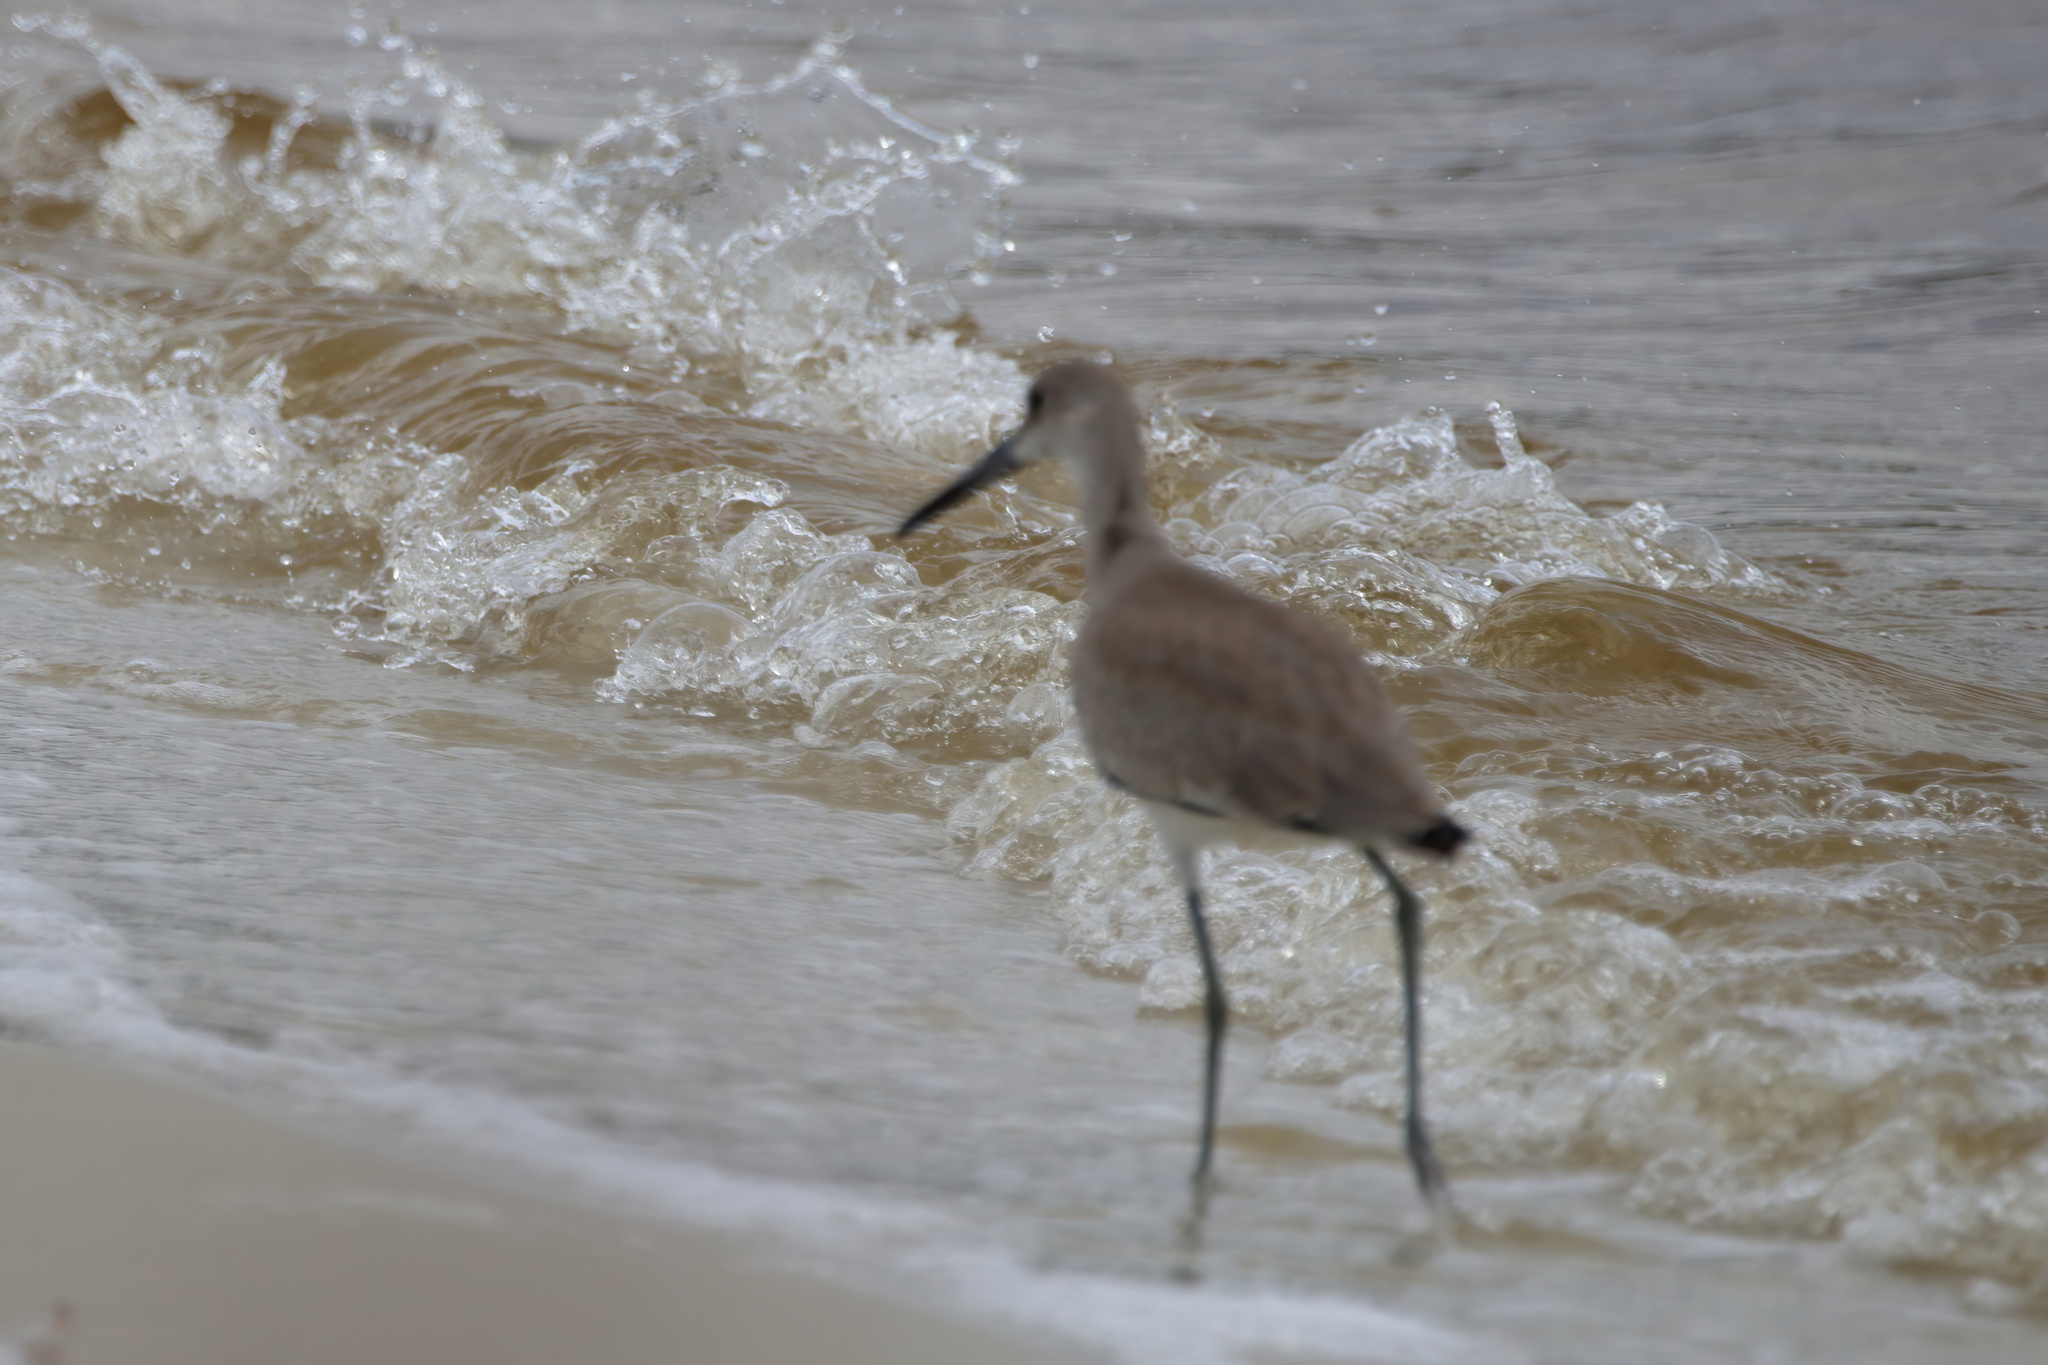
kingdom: Animalia
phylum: Chordata
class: Aves
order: Charadriiformes
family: Scolopacidae
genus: Tringa
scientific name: Tringa semipalmata
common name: Willet
